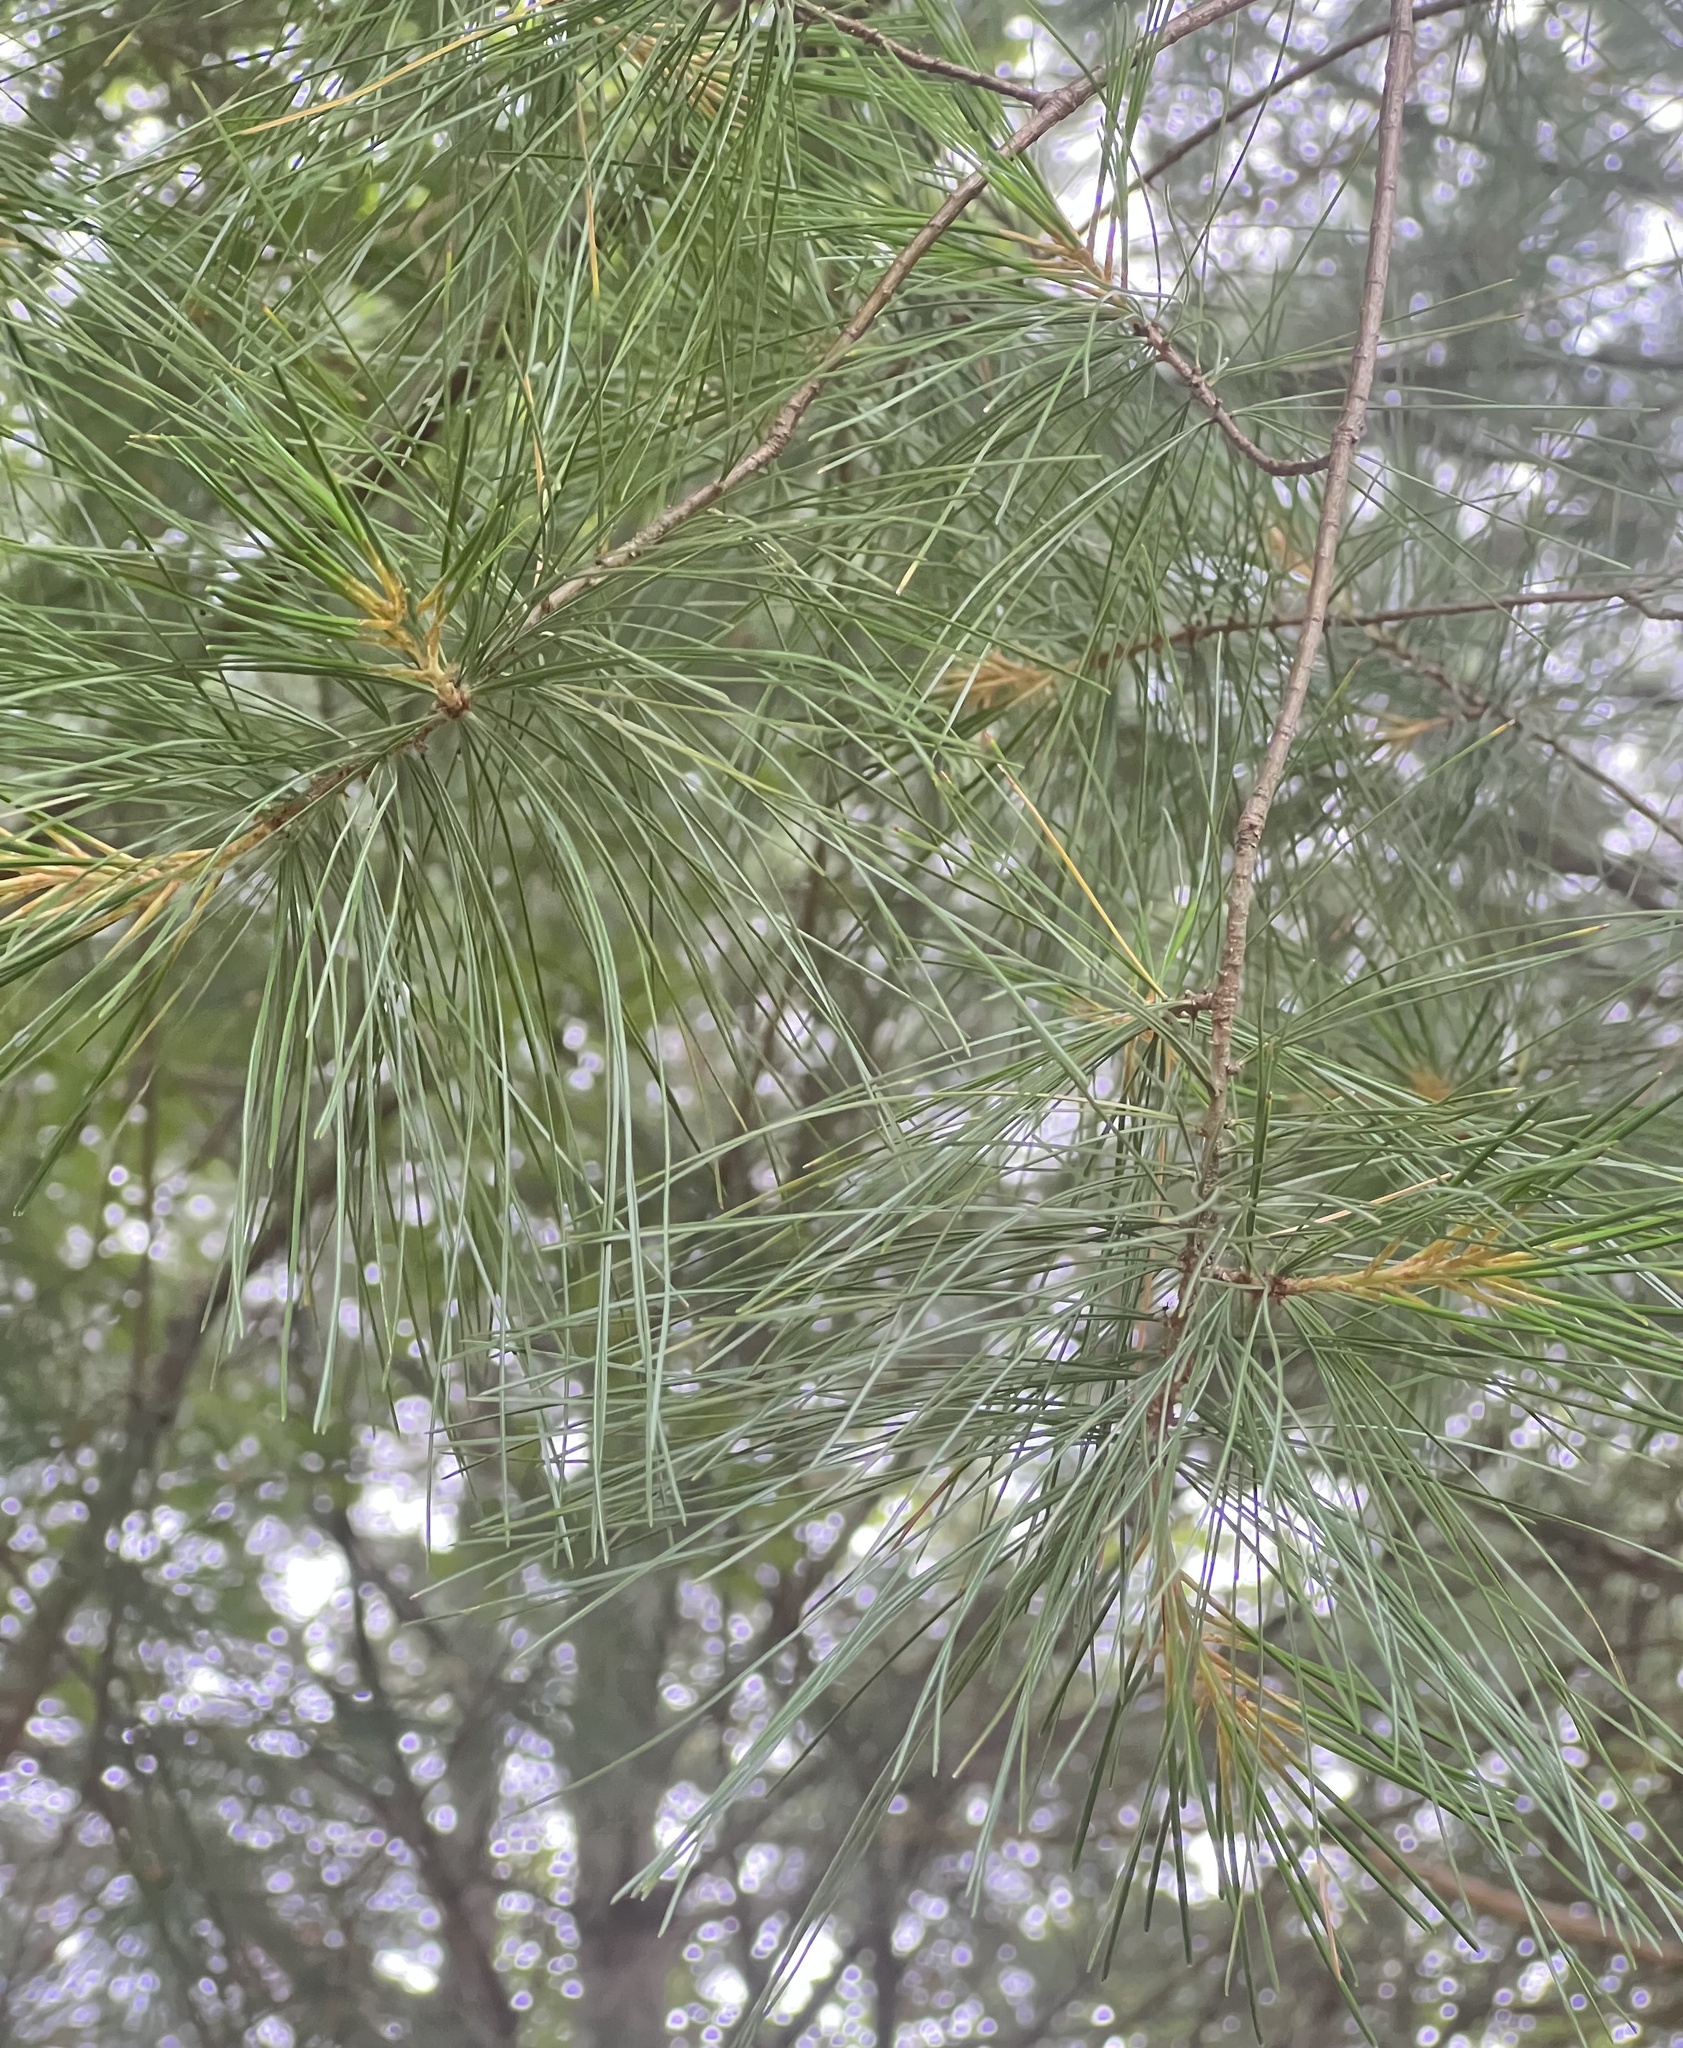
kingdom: Plantae
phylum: Tracheophyta
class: Pinopsida
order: Pinales
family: Pinaceae
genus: Pinus
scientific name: Pinus strobus
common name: Weymouth pine
